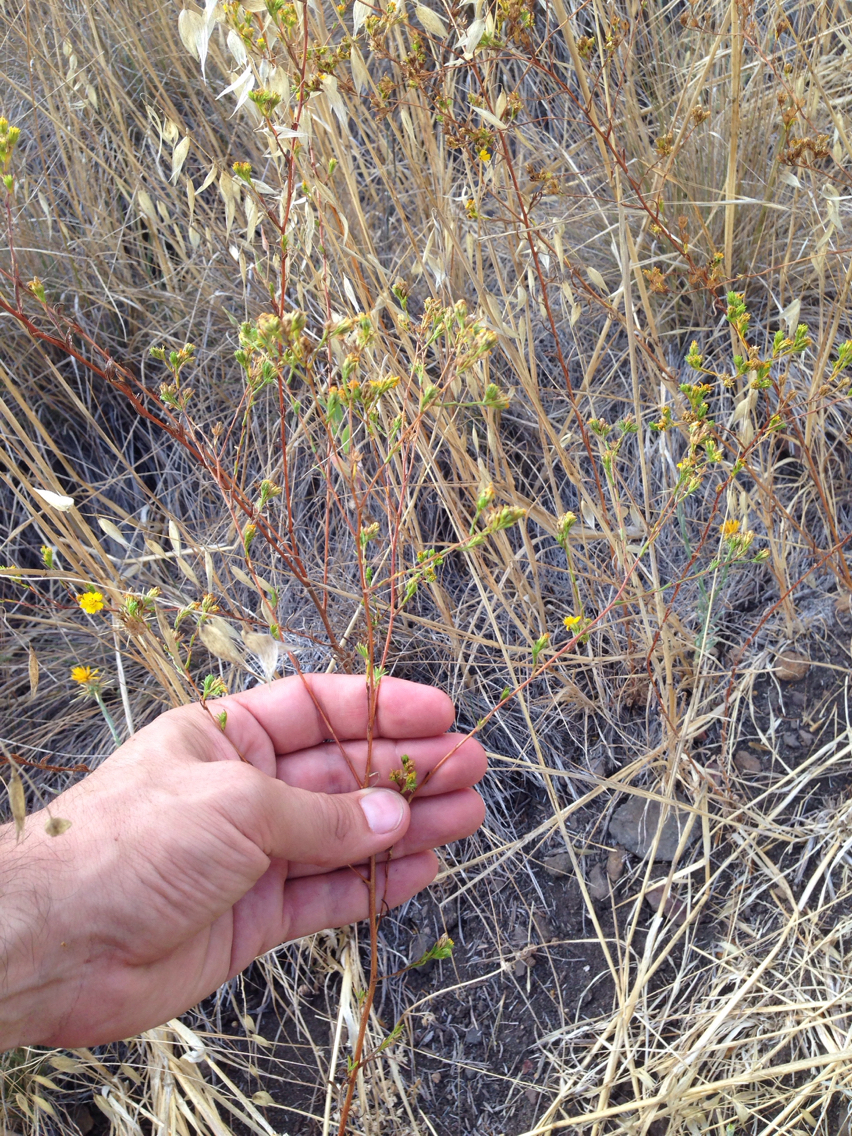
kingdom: Plantae
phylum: Tracheophyta
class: Magnoliopsida
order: Asterales
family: Asteraceae
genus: Deinandra
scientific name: Deinandra fasciculata
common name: Clustered tarweed
